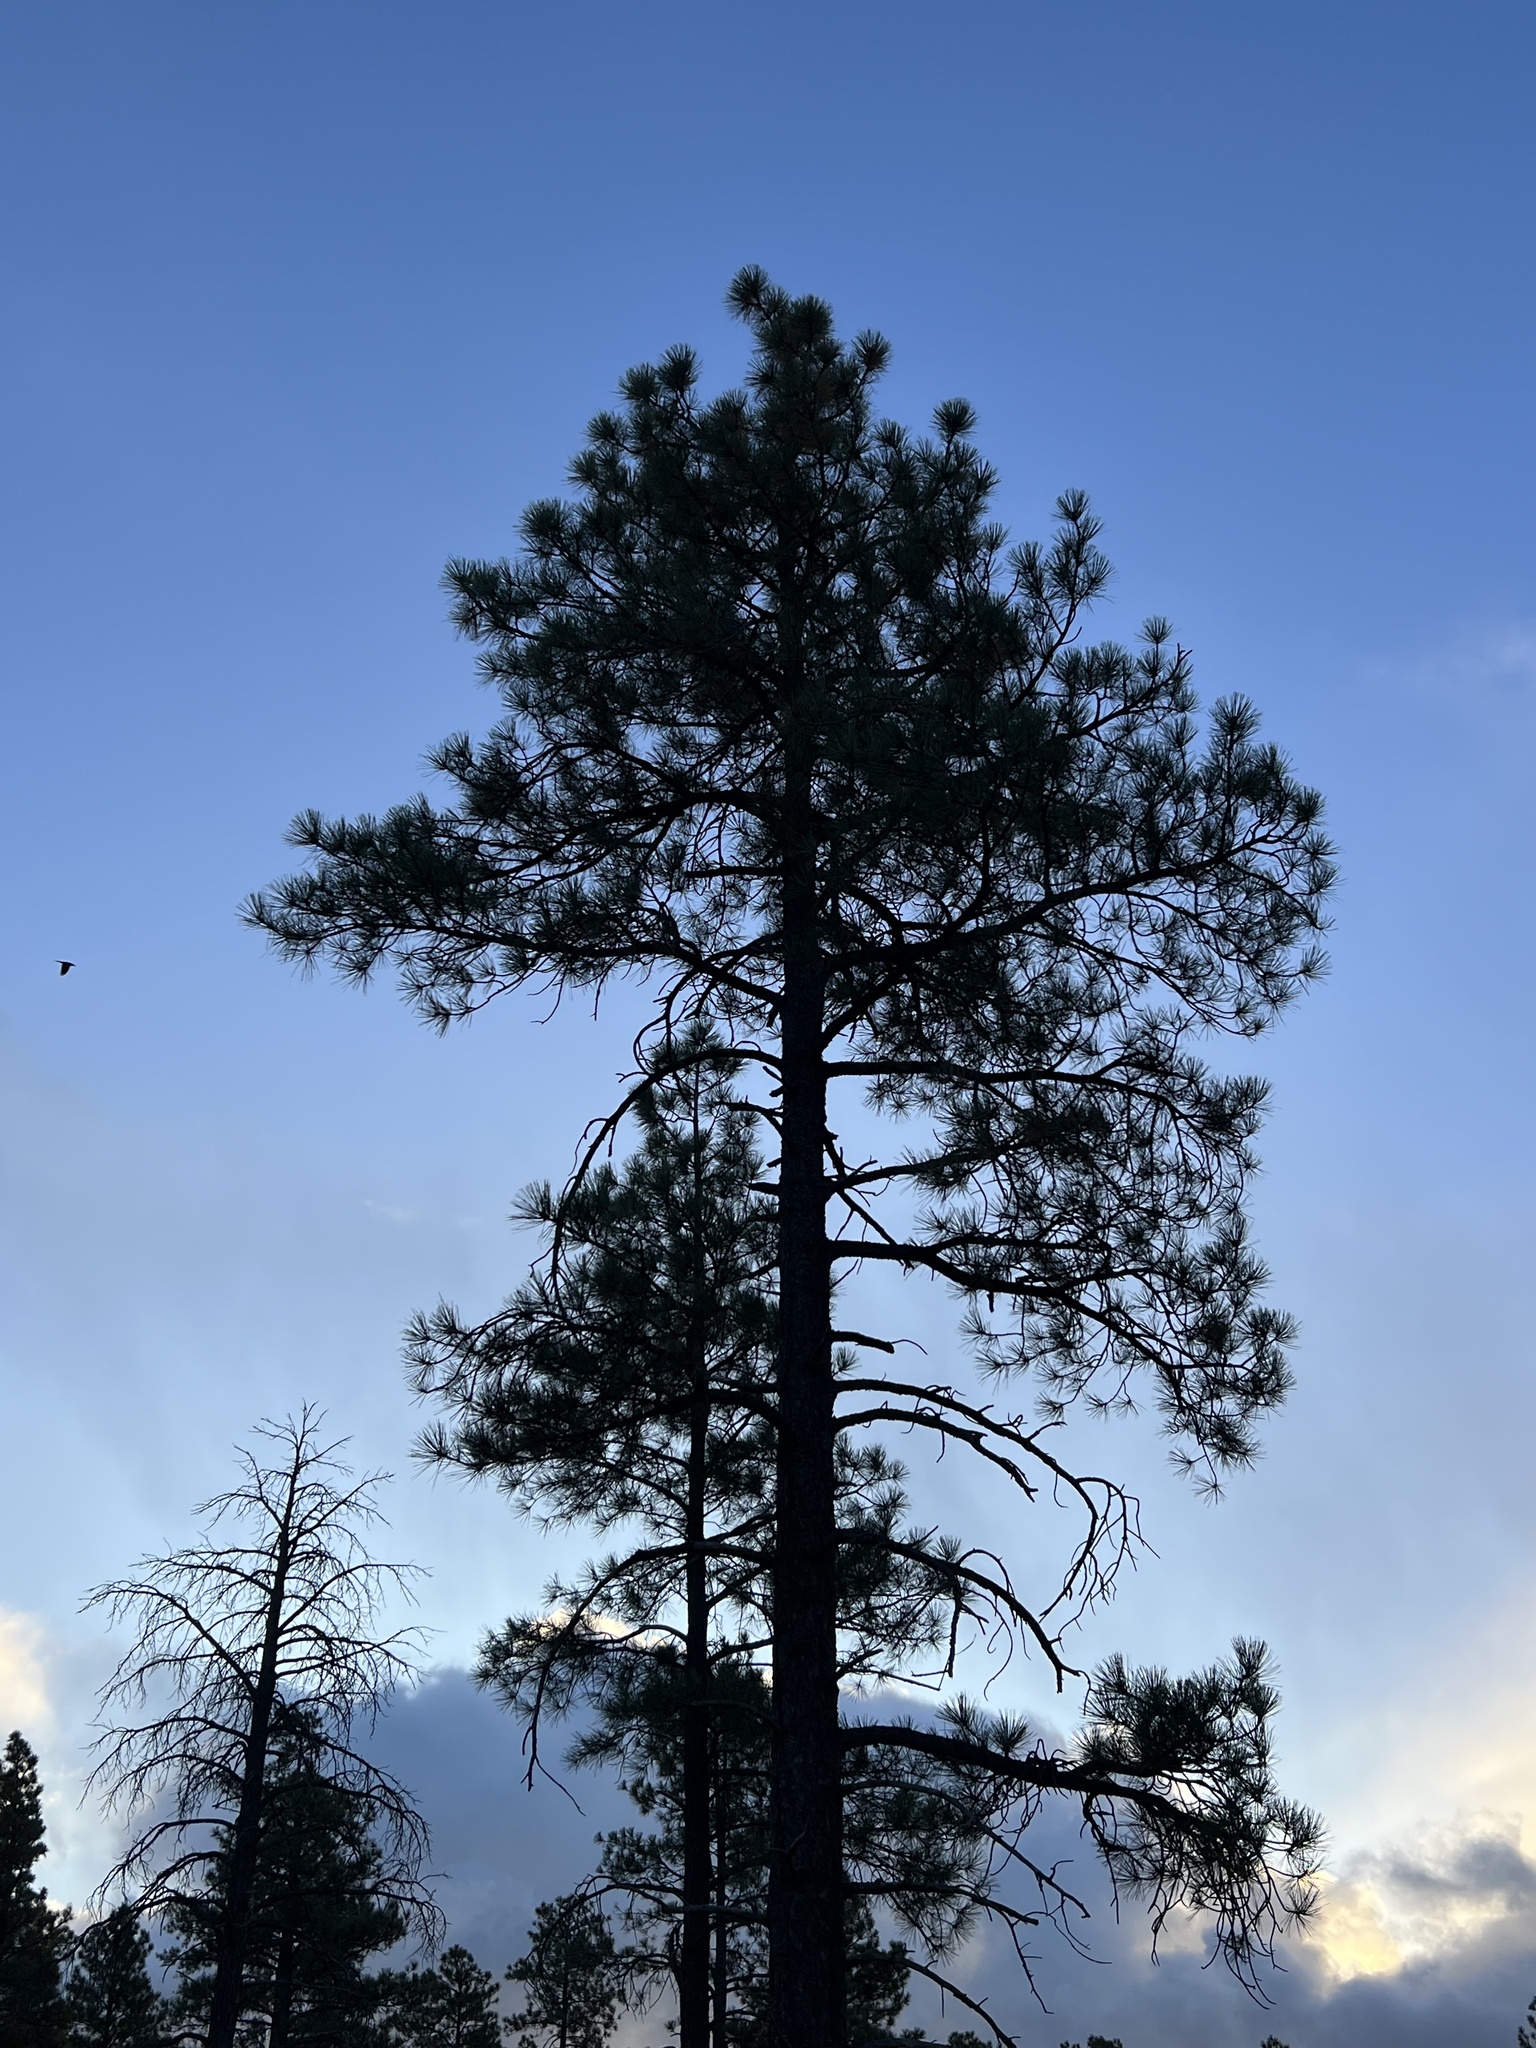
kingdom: Plantae
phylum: Tracheophyta
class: Pinopsida
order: Pinales
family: Pinaceae
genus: Pinus
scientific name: Pinus ponderosa
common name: Western yellow-pine
